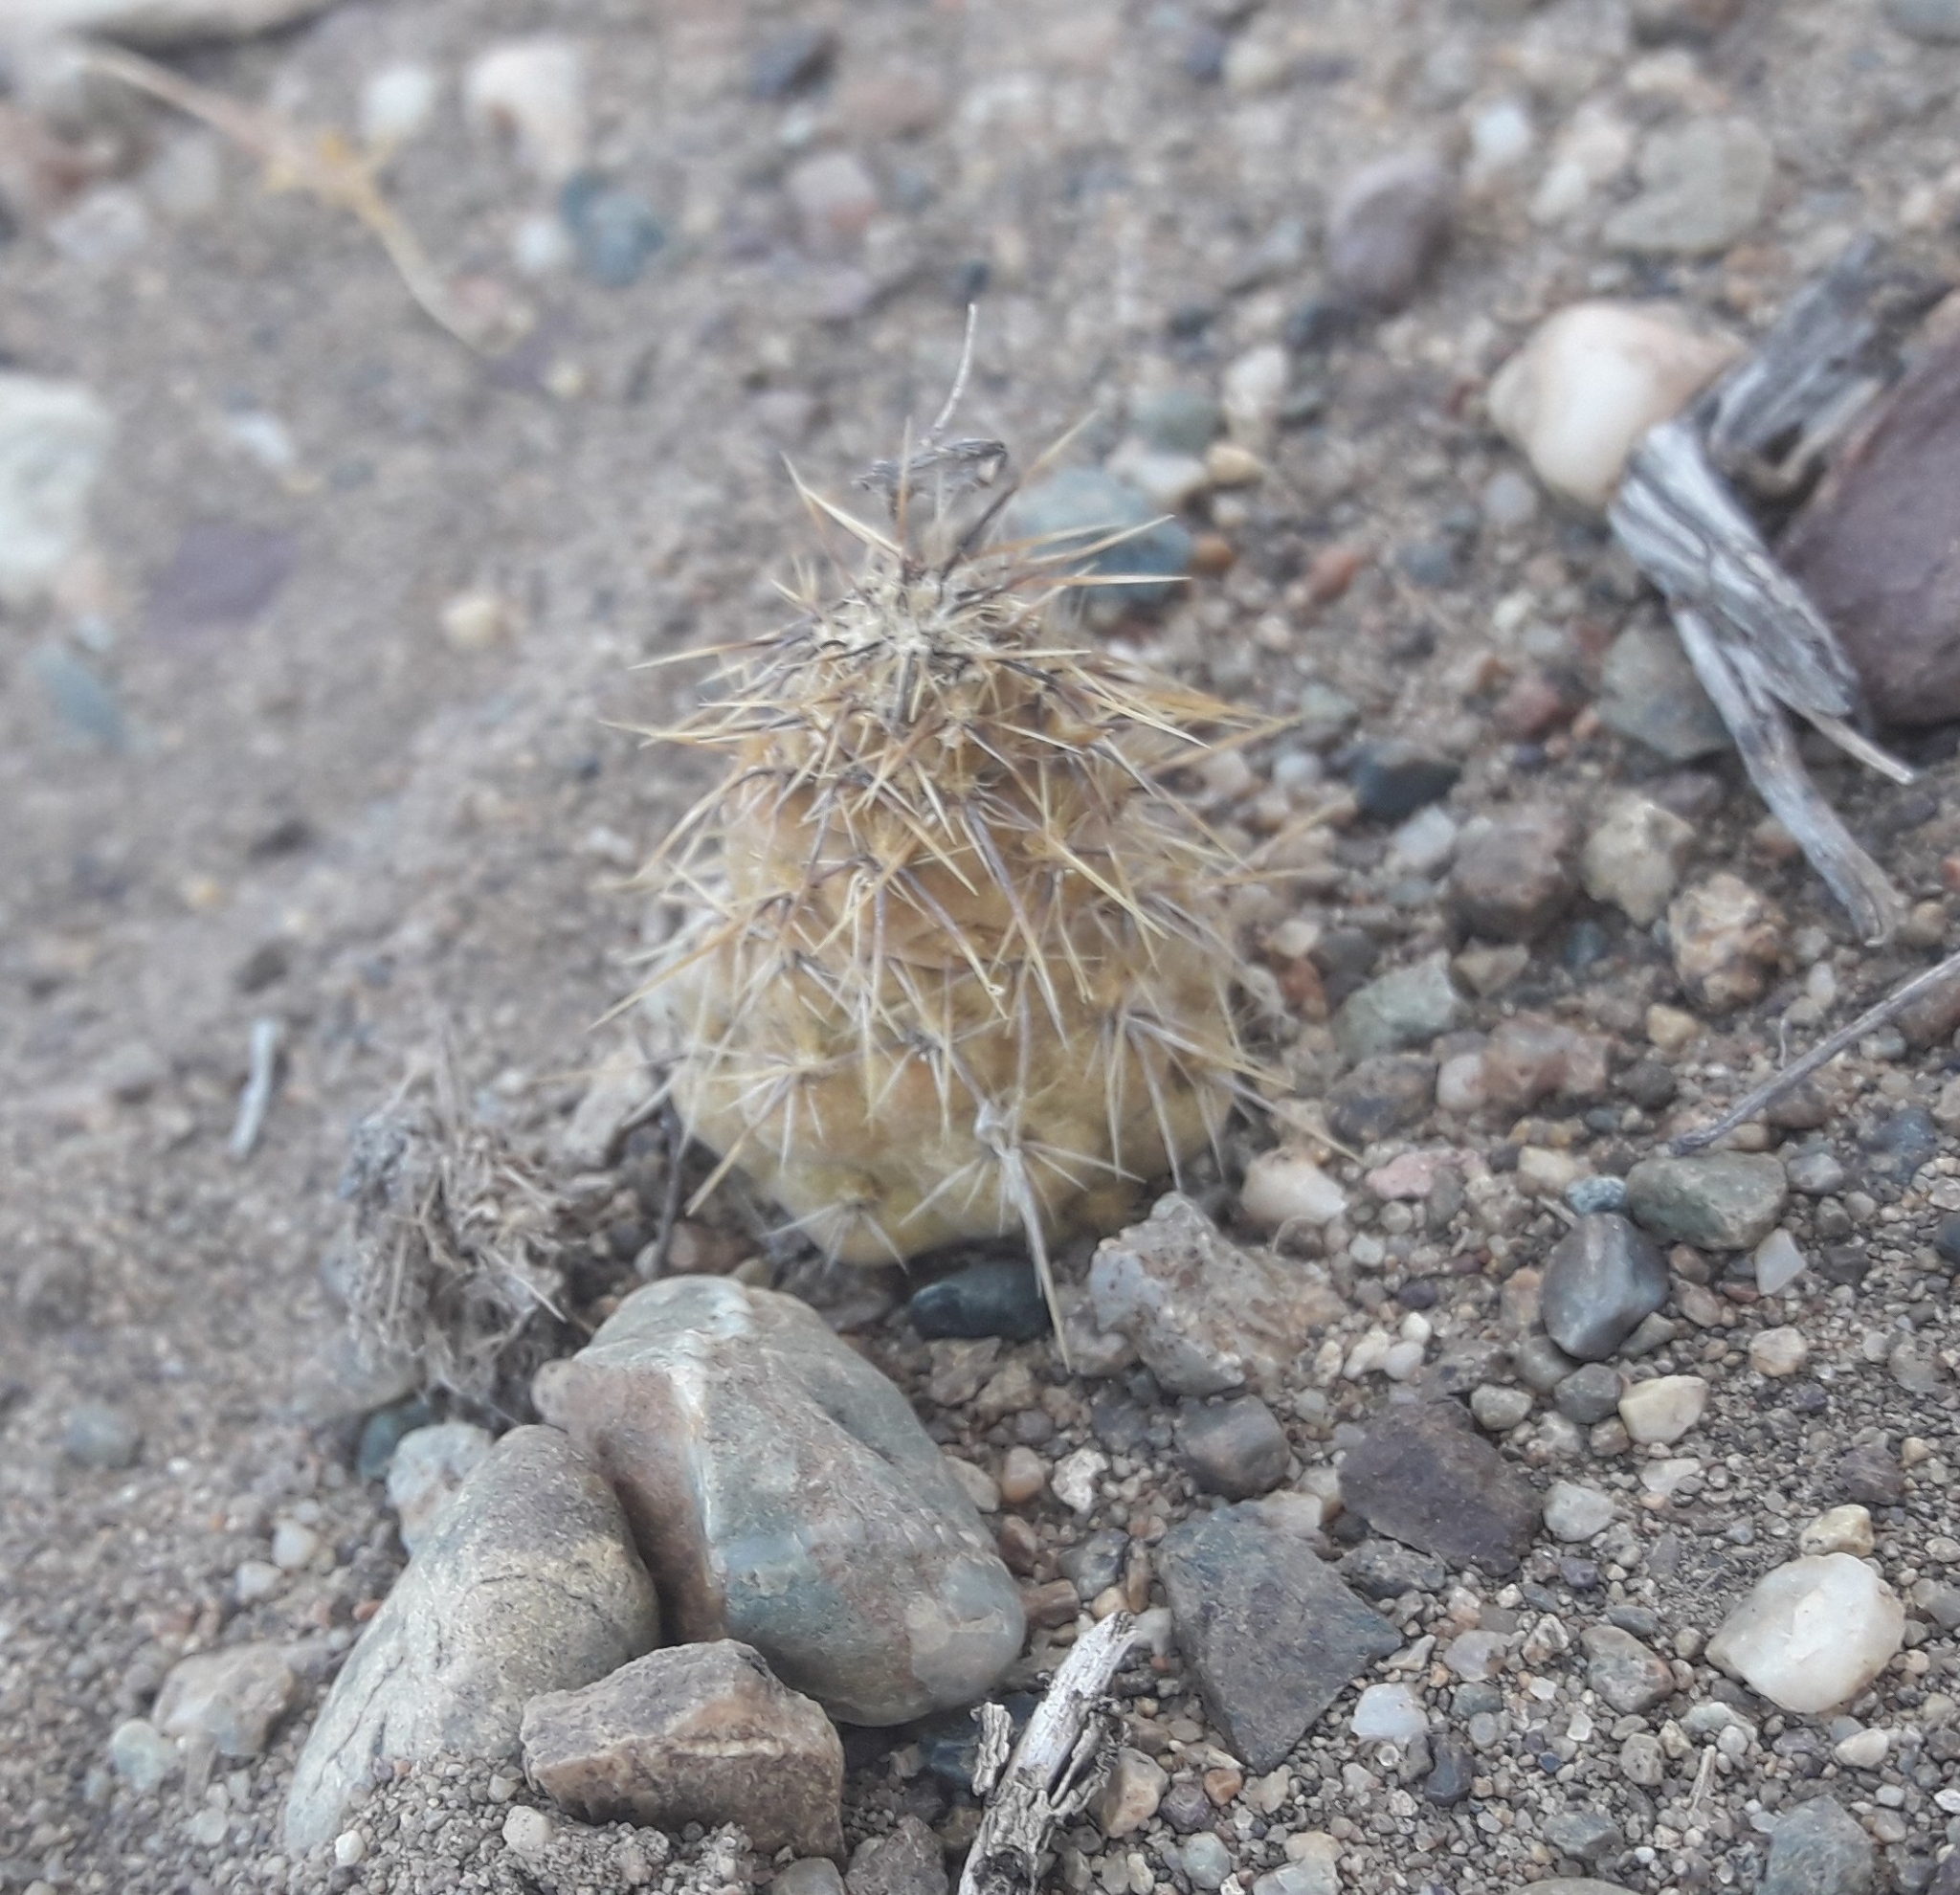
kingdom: Plantae
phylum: Tracheophyta
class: Magnoliopsida
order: Caryophyllales
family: Cactaceae
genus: Pterocactus
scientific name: Pterocactus hickenii
